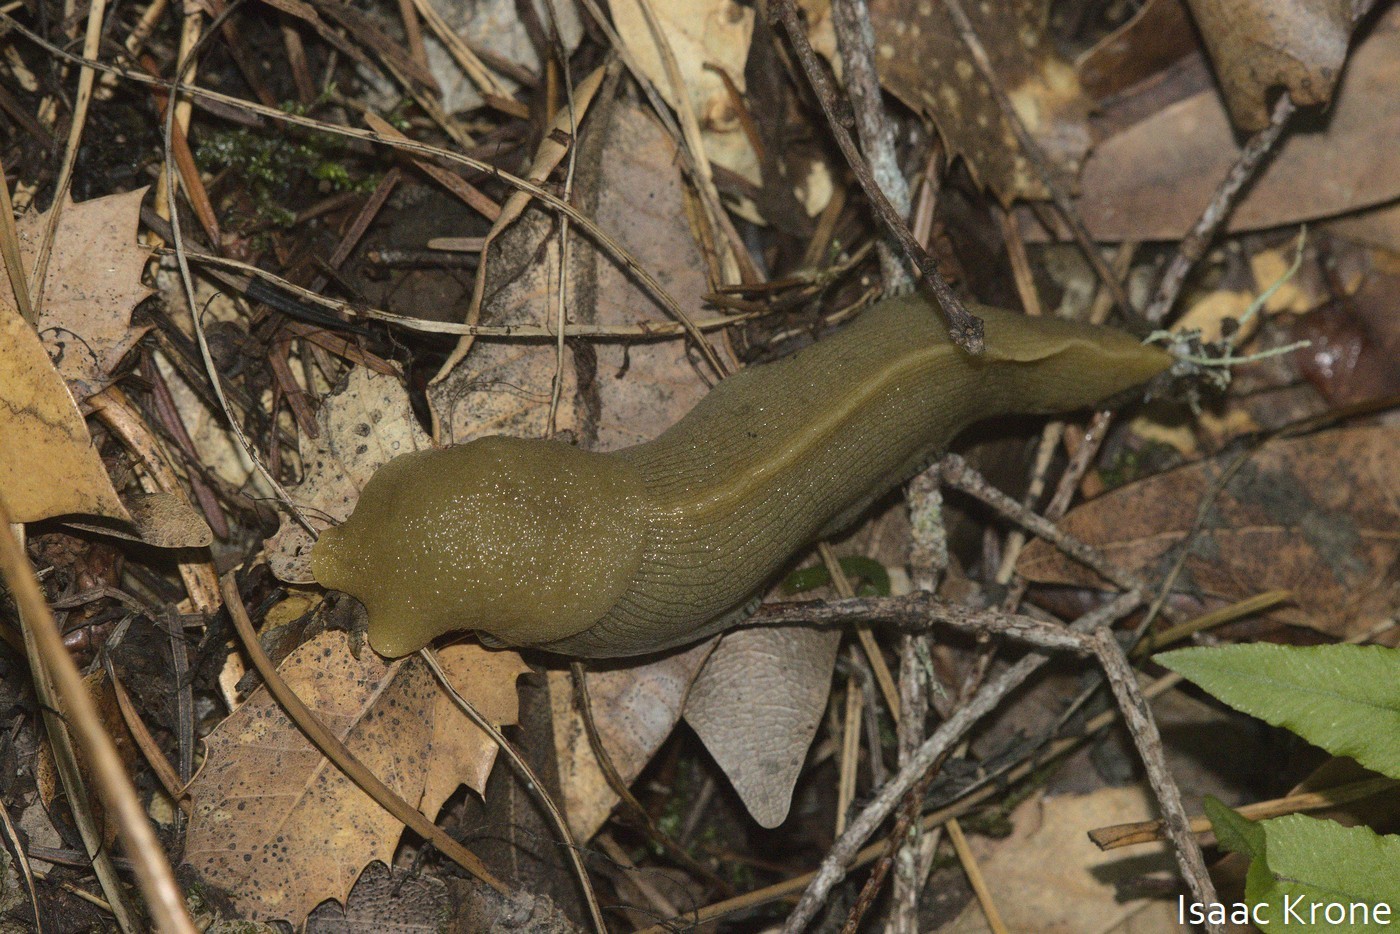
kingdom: Animalia
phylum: Mollusca
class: Gastropoda
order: Stylommatophora
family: Ariolimacidae
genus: Ariolimax
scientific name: Ariolimax buttoni
